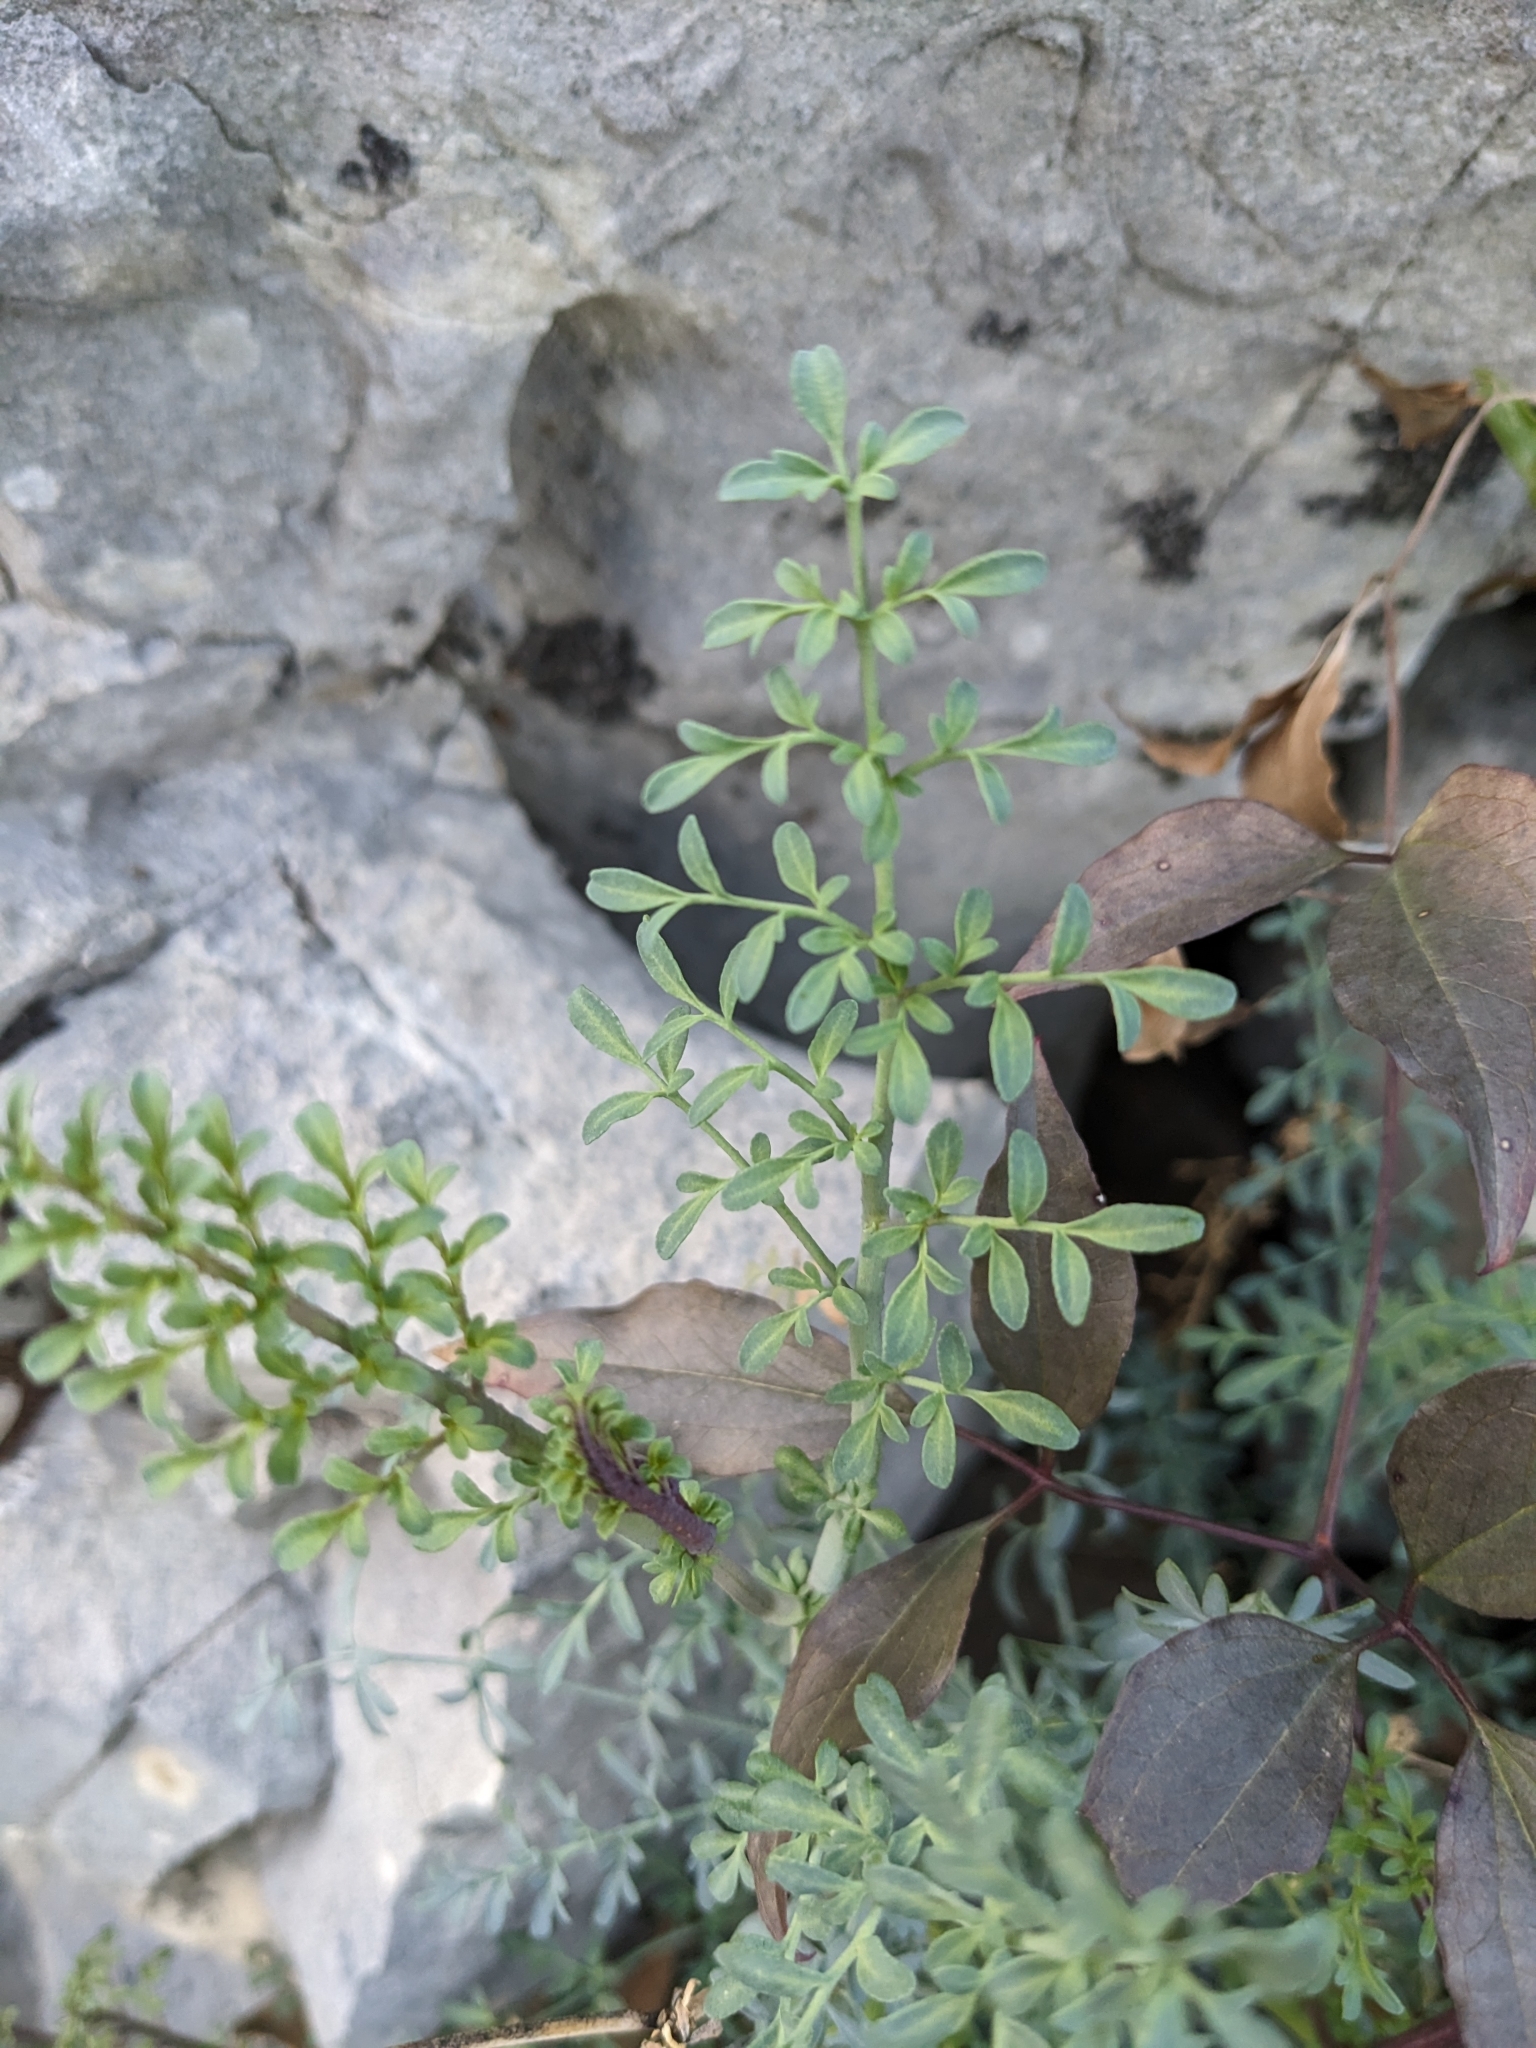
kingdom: Plantae
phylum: Tracheophyta
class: Magnoliopsida
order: Sapindales
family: Rutaceae
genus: Ruta
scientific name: Ruta angustifolia
